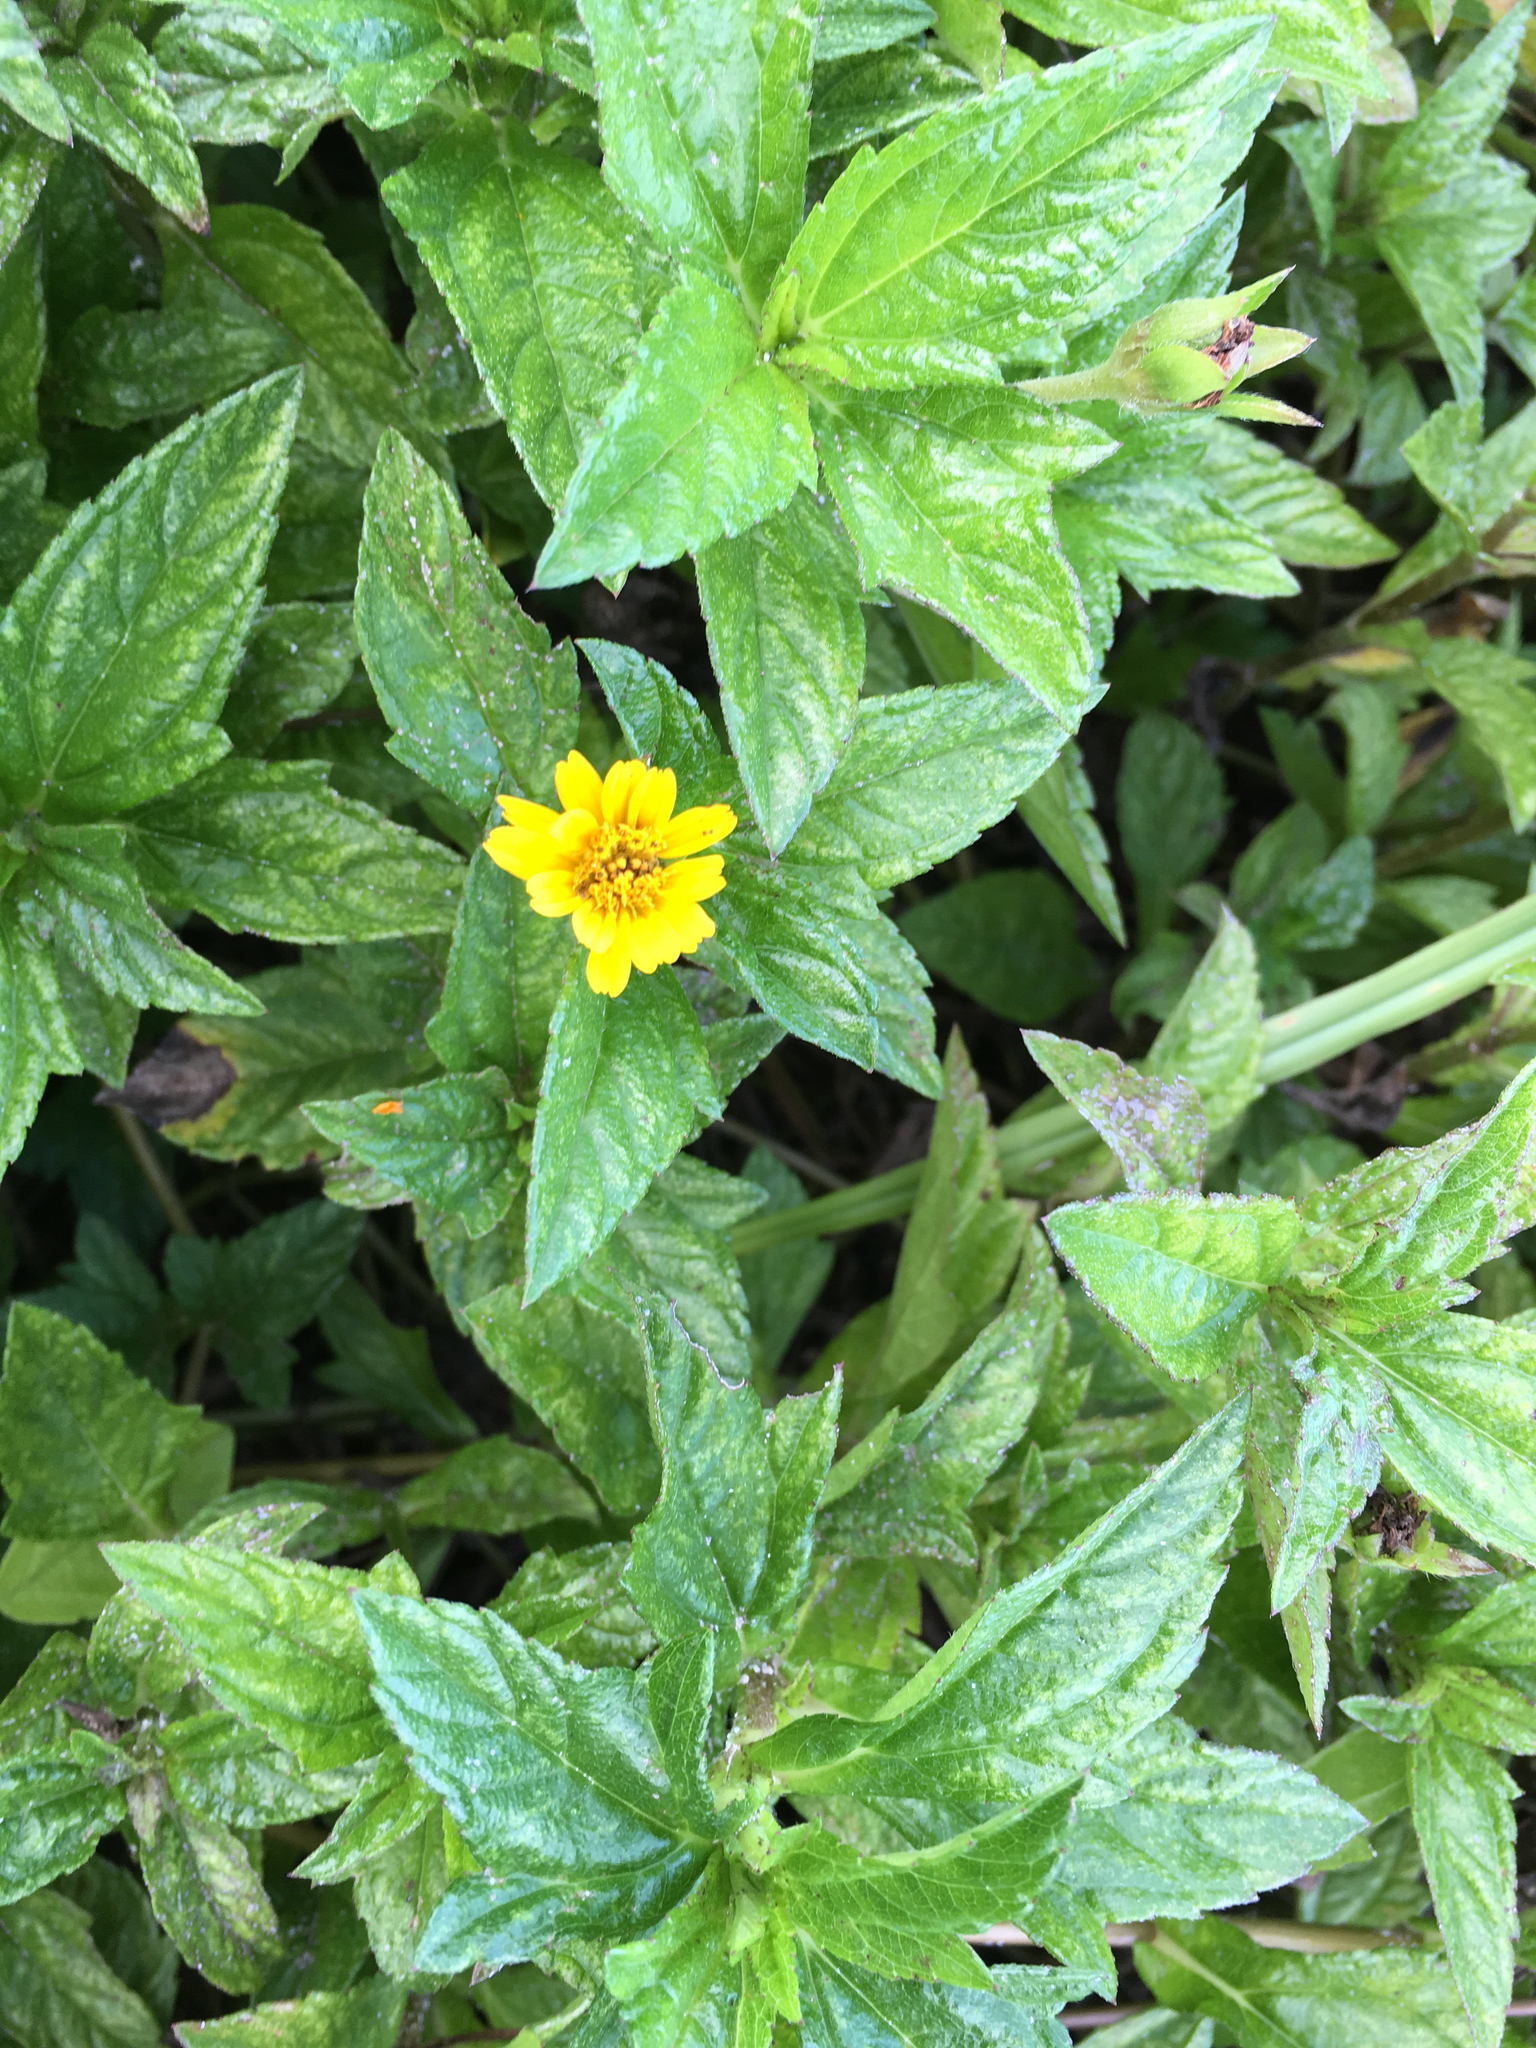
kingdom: Plantae
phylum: Tracheophyta
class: Magnoliopsida
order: Asterales
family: Asteraceae
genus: Sphagneticola
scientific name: Sphagneticola trilobata
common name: Bay biscayne creeping-oxeye
